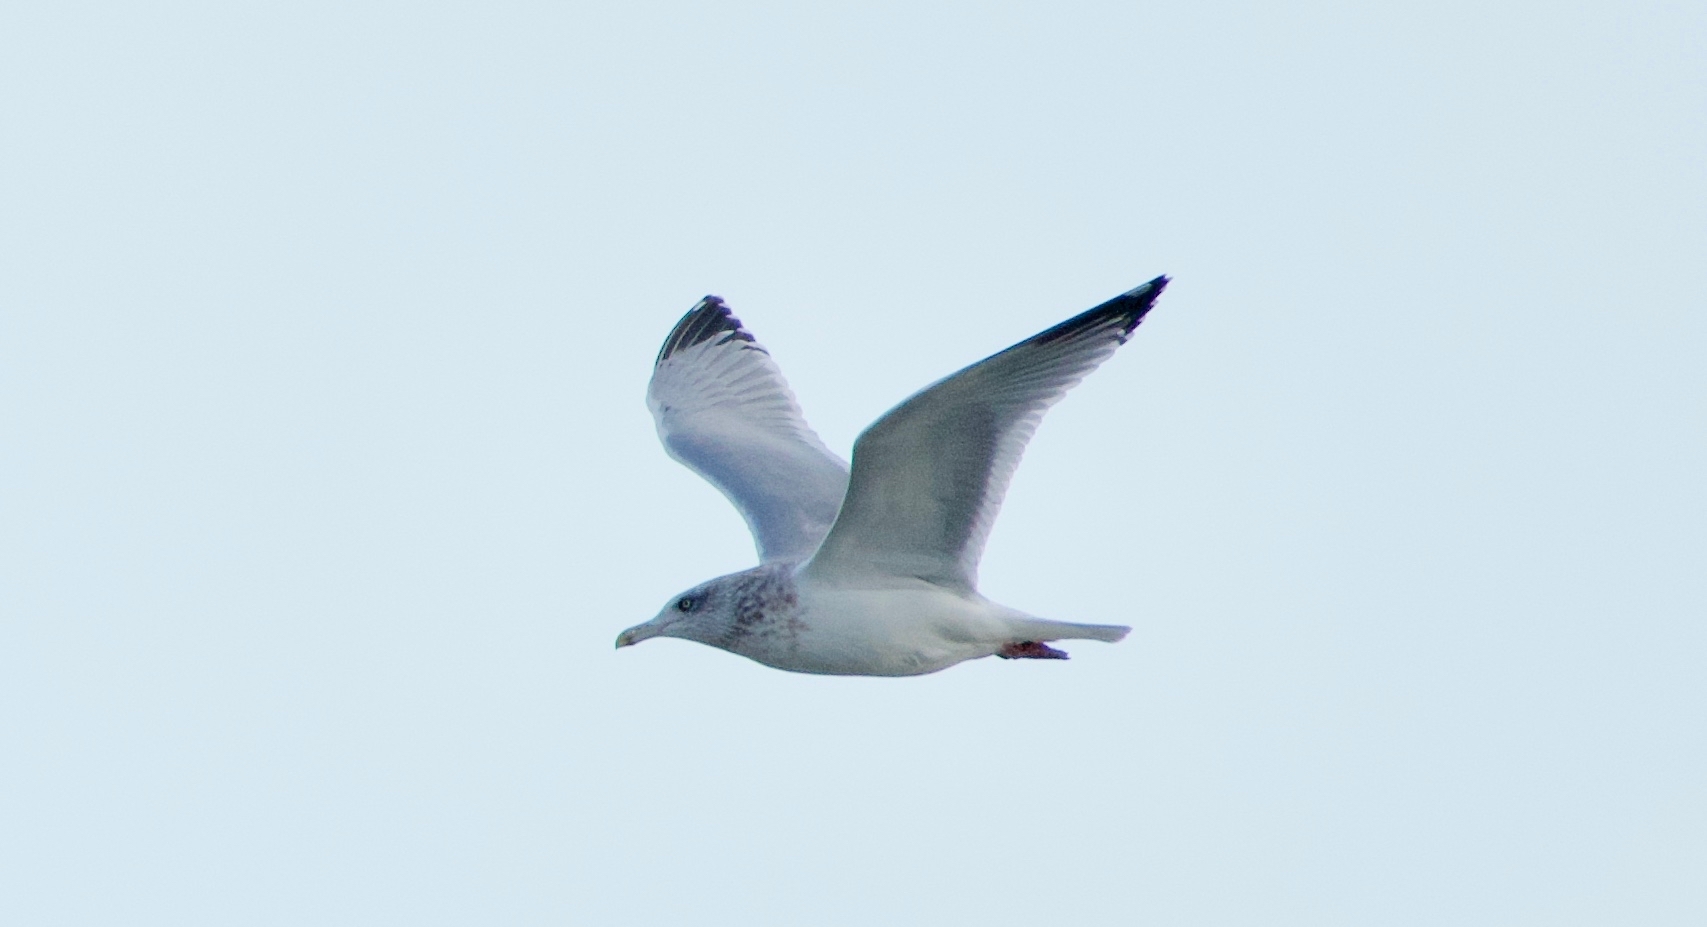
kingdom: Animalia
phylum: Chordata
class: Aves
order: Charadriiformes
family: Laridae
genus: Larus
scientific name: Larus argentatus
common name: Herring gull
